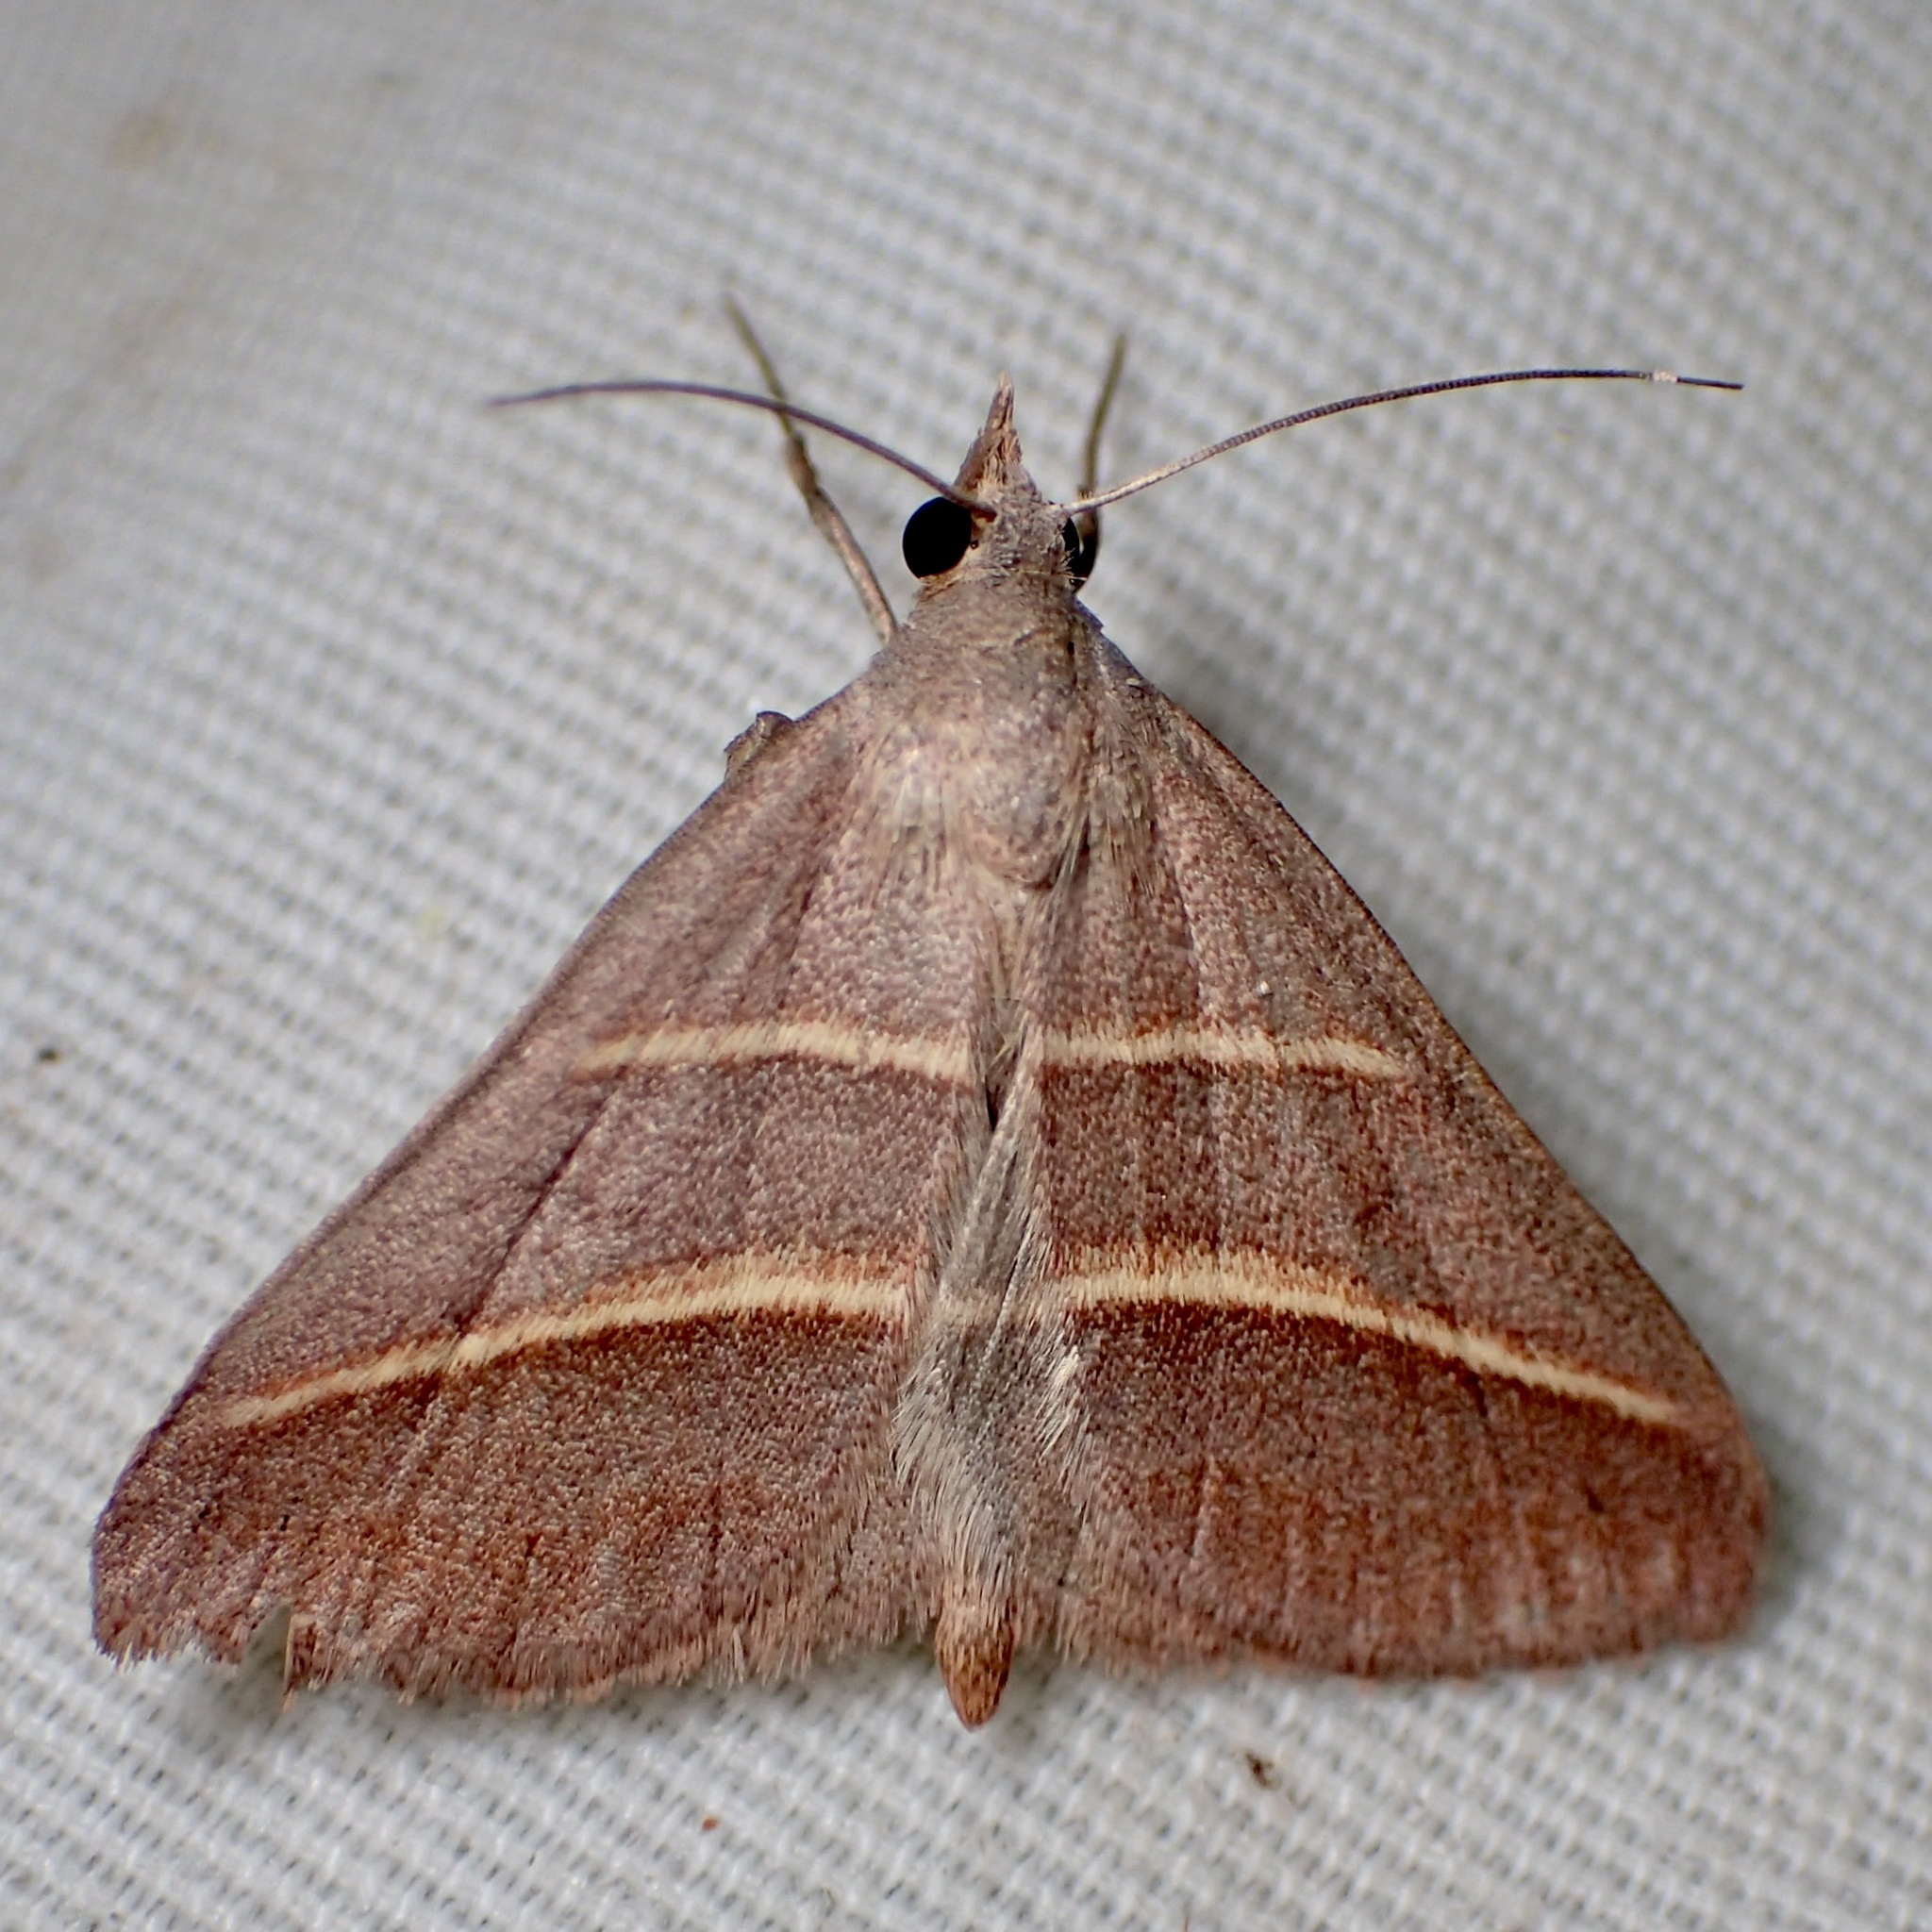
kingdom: Animalia
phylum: Arthropoda
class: Insecta
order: Lepidoptera
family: Erebidae
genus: Hemeroplanis
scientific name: Hemeroplanis parallela
